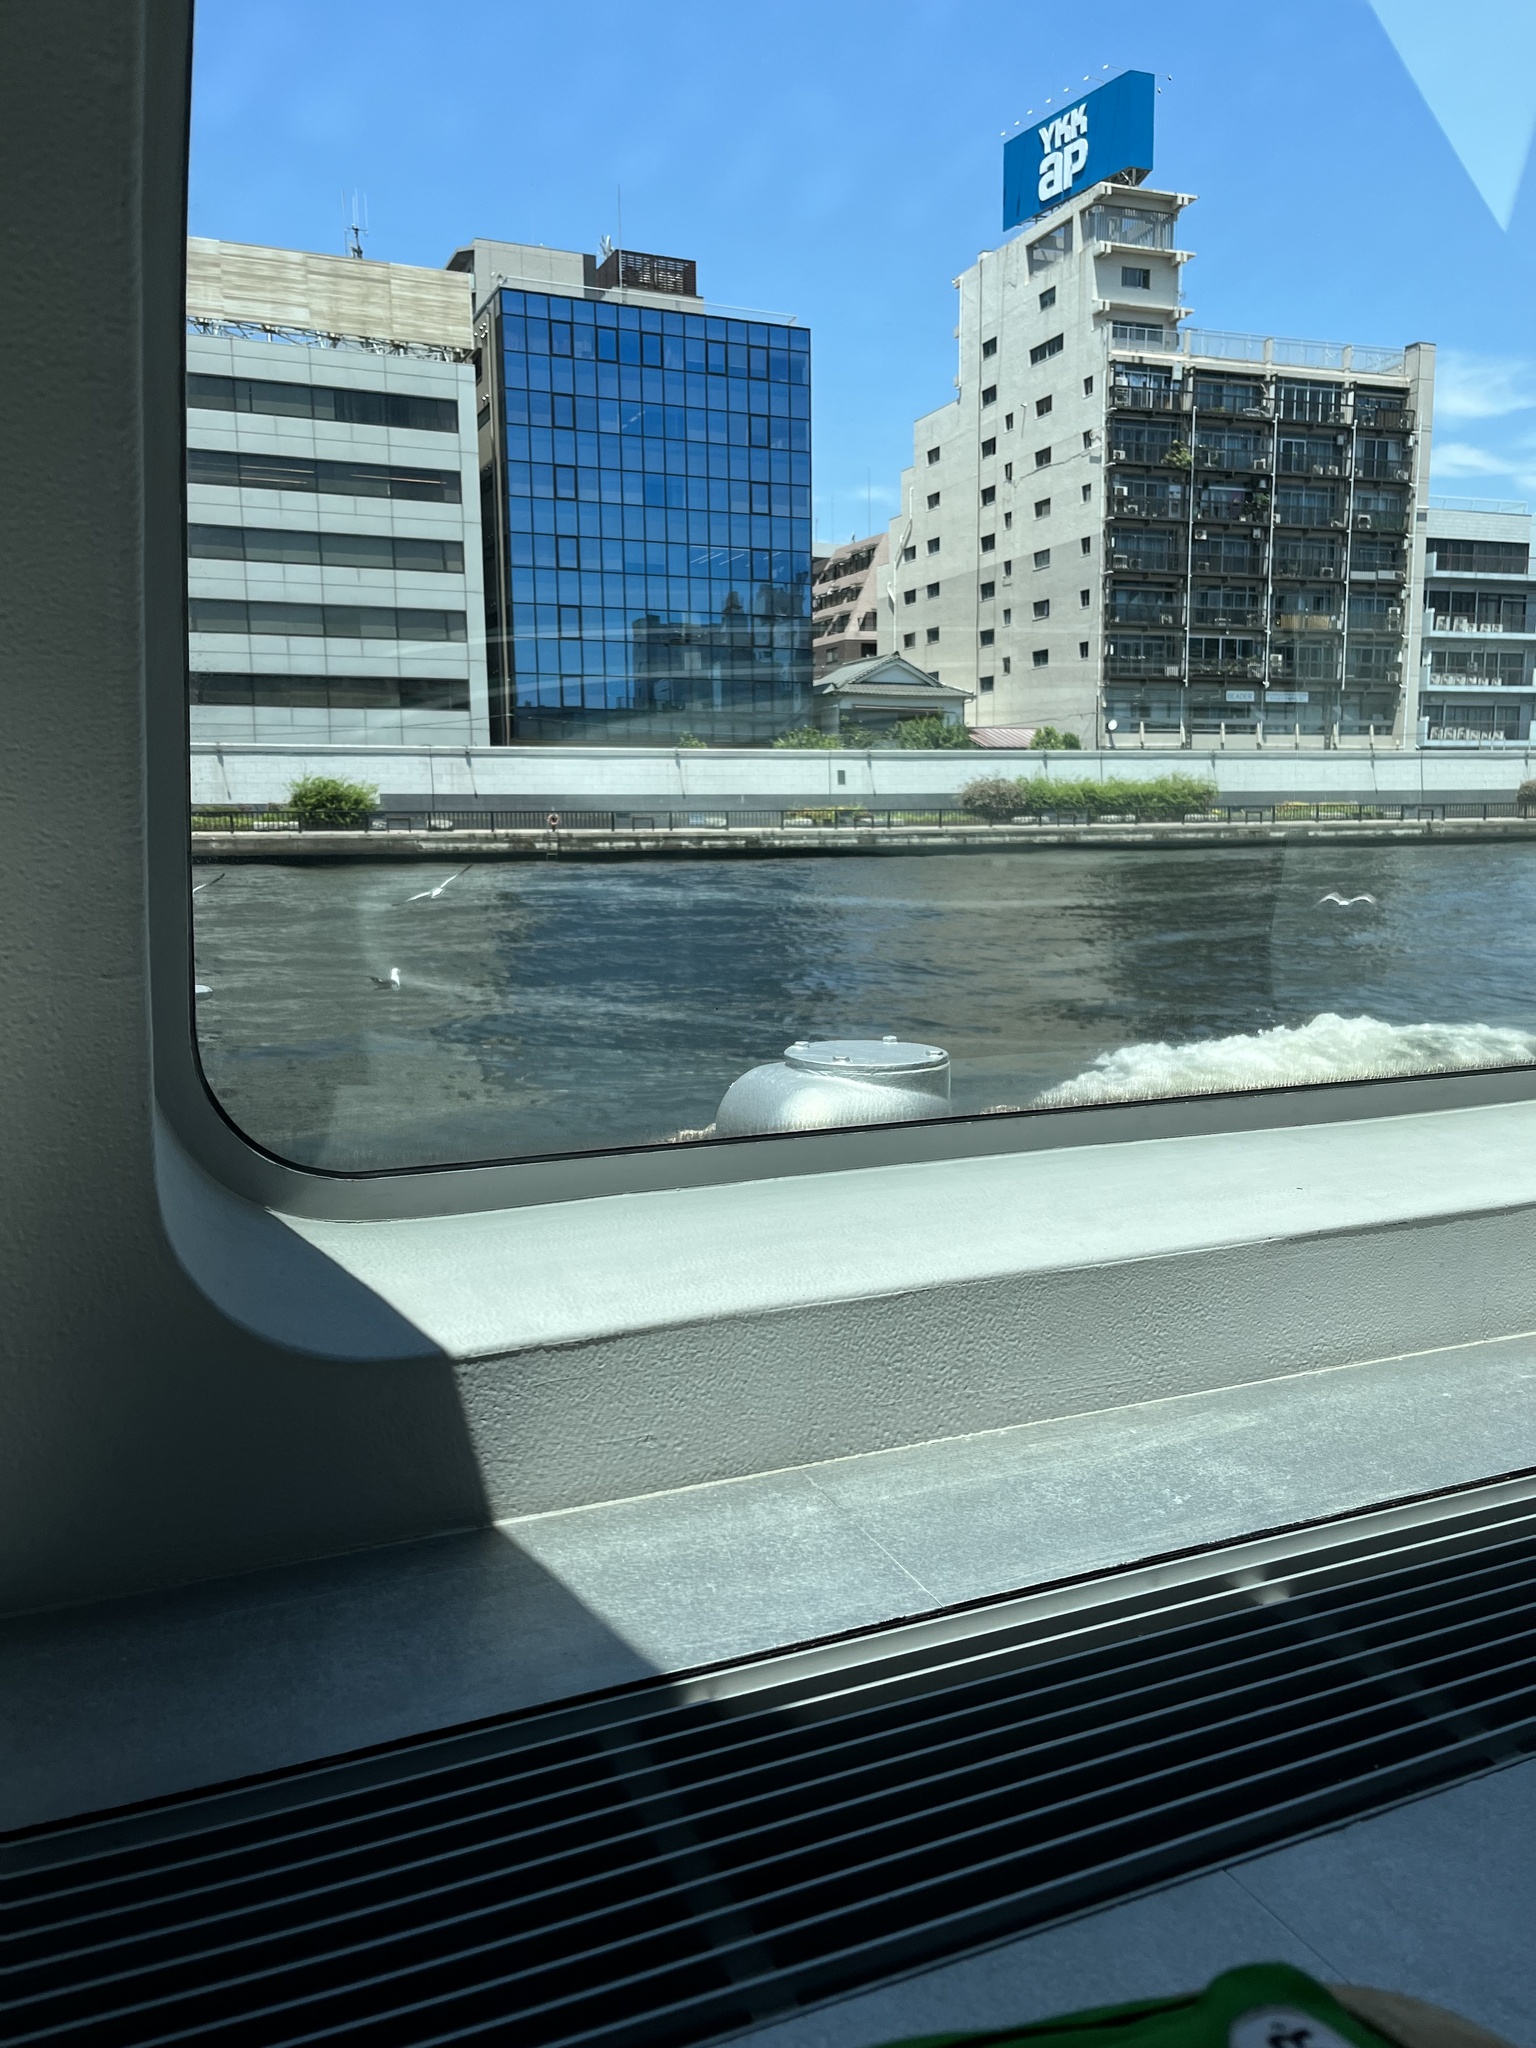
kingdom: Animalia
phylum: Chordata
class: Aves
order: Charadriiformes
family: Laridae
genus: Larus
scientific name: Larus crassirostris
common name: Black-tailed gull
